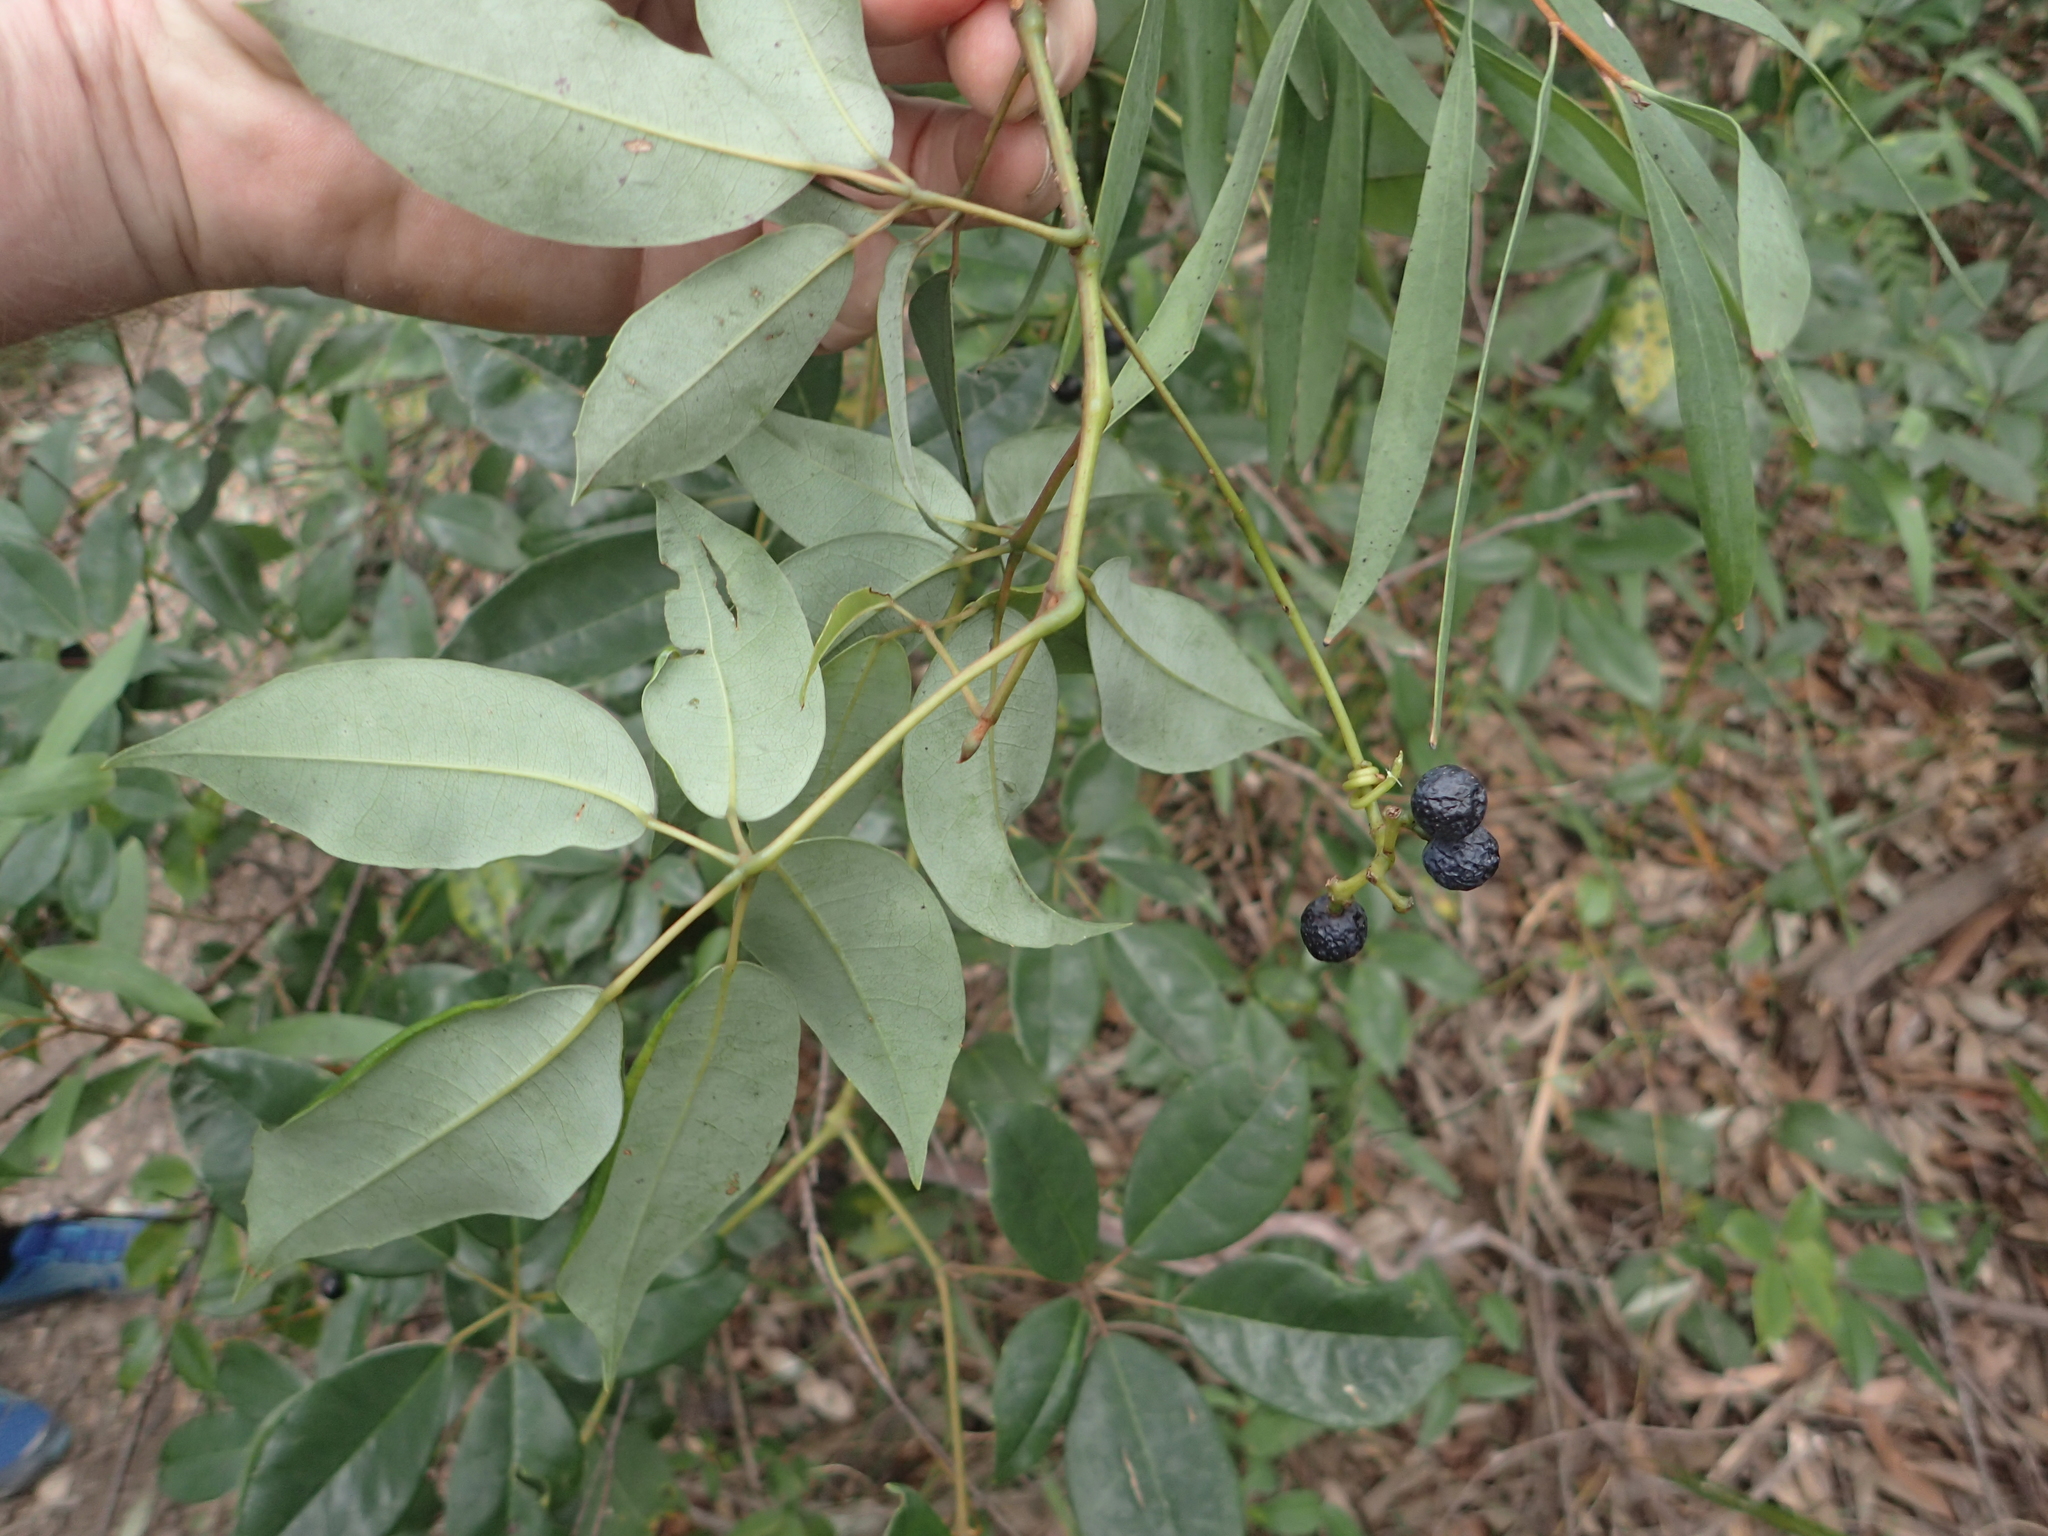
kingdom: Plantae
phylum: Tracheophyta
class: Magnoliopsida
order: Vitales
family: Vitaceae
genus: Nothocissus
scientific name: Nothocissus hypoglauca
